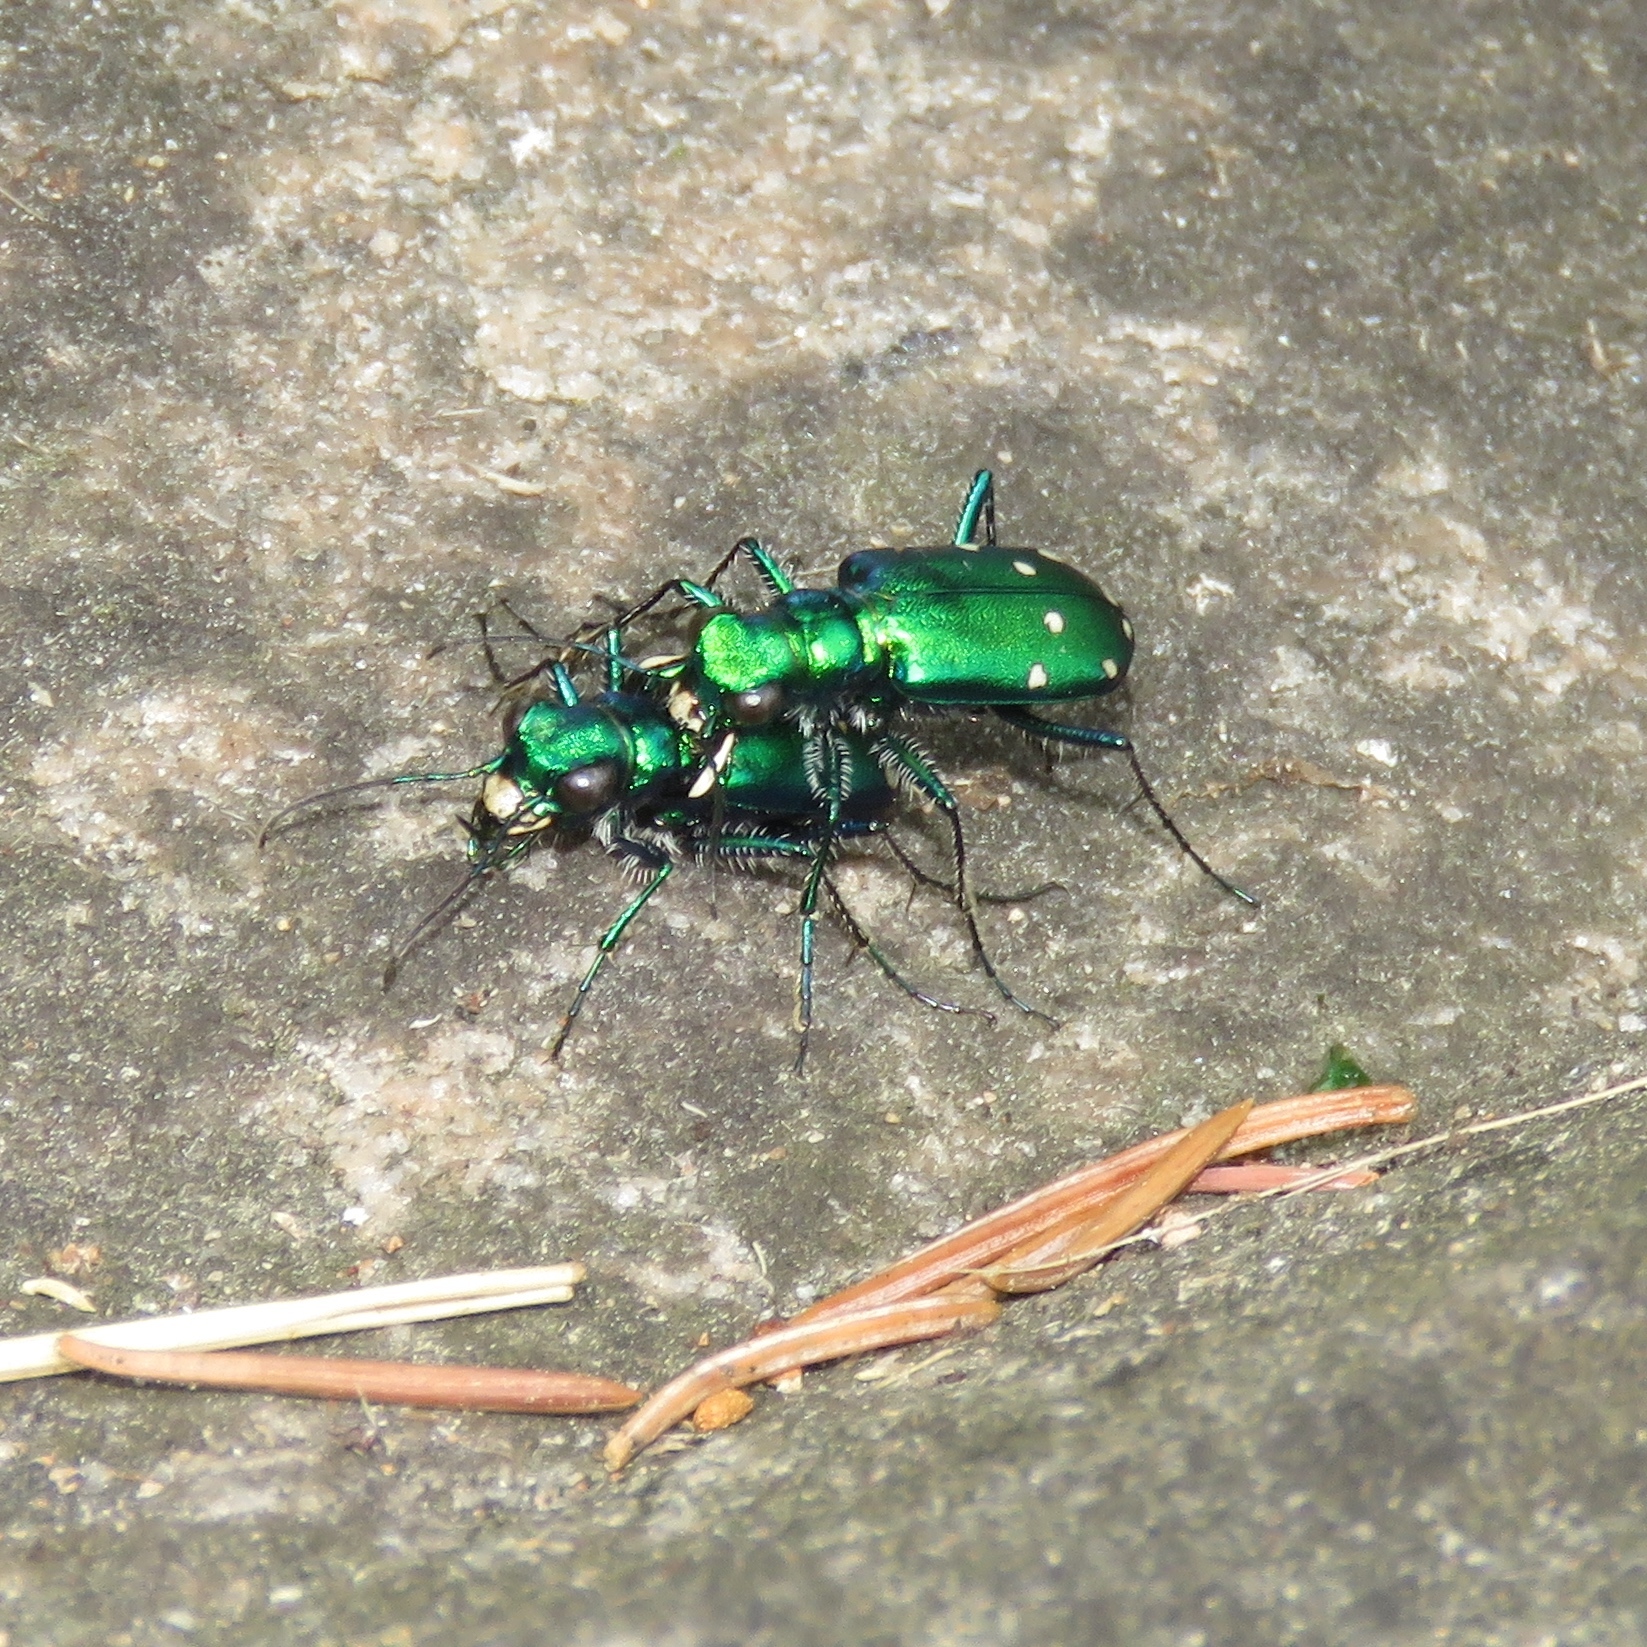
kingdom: Animalia
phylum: Arthropoda
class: Insecta
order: Coleoptera
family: Carabidae
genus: Cicindela
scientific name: Cicindela sexguttata
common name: Six-spotted tiger beetle
